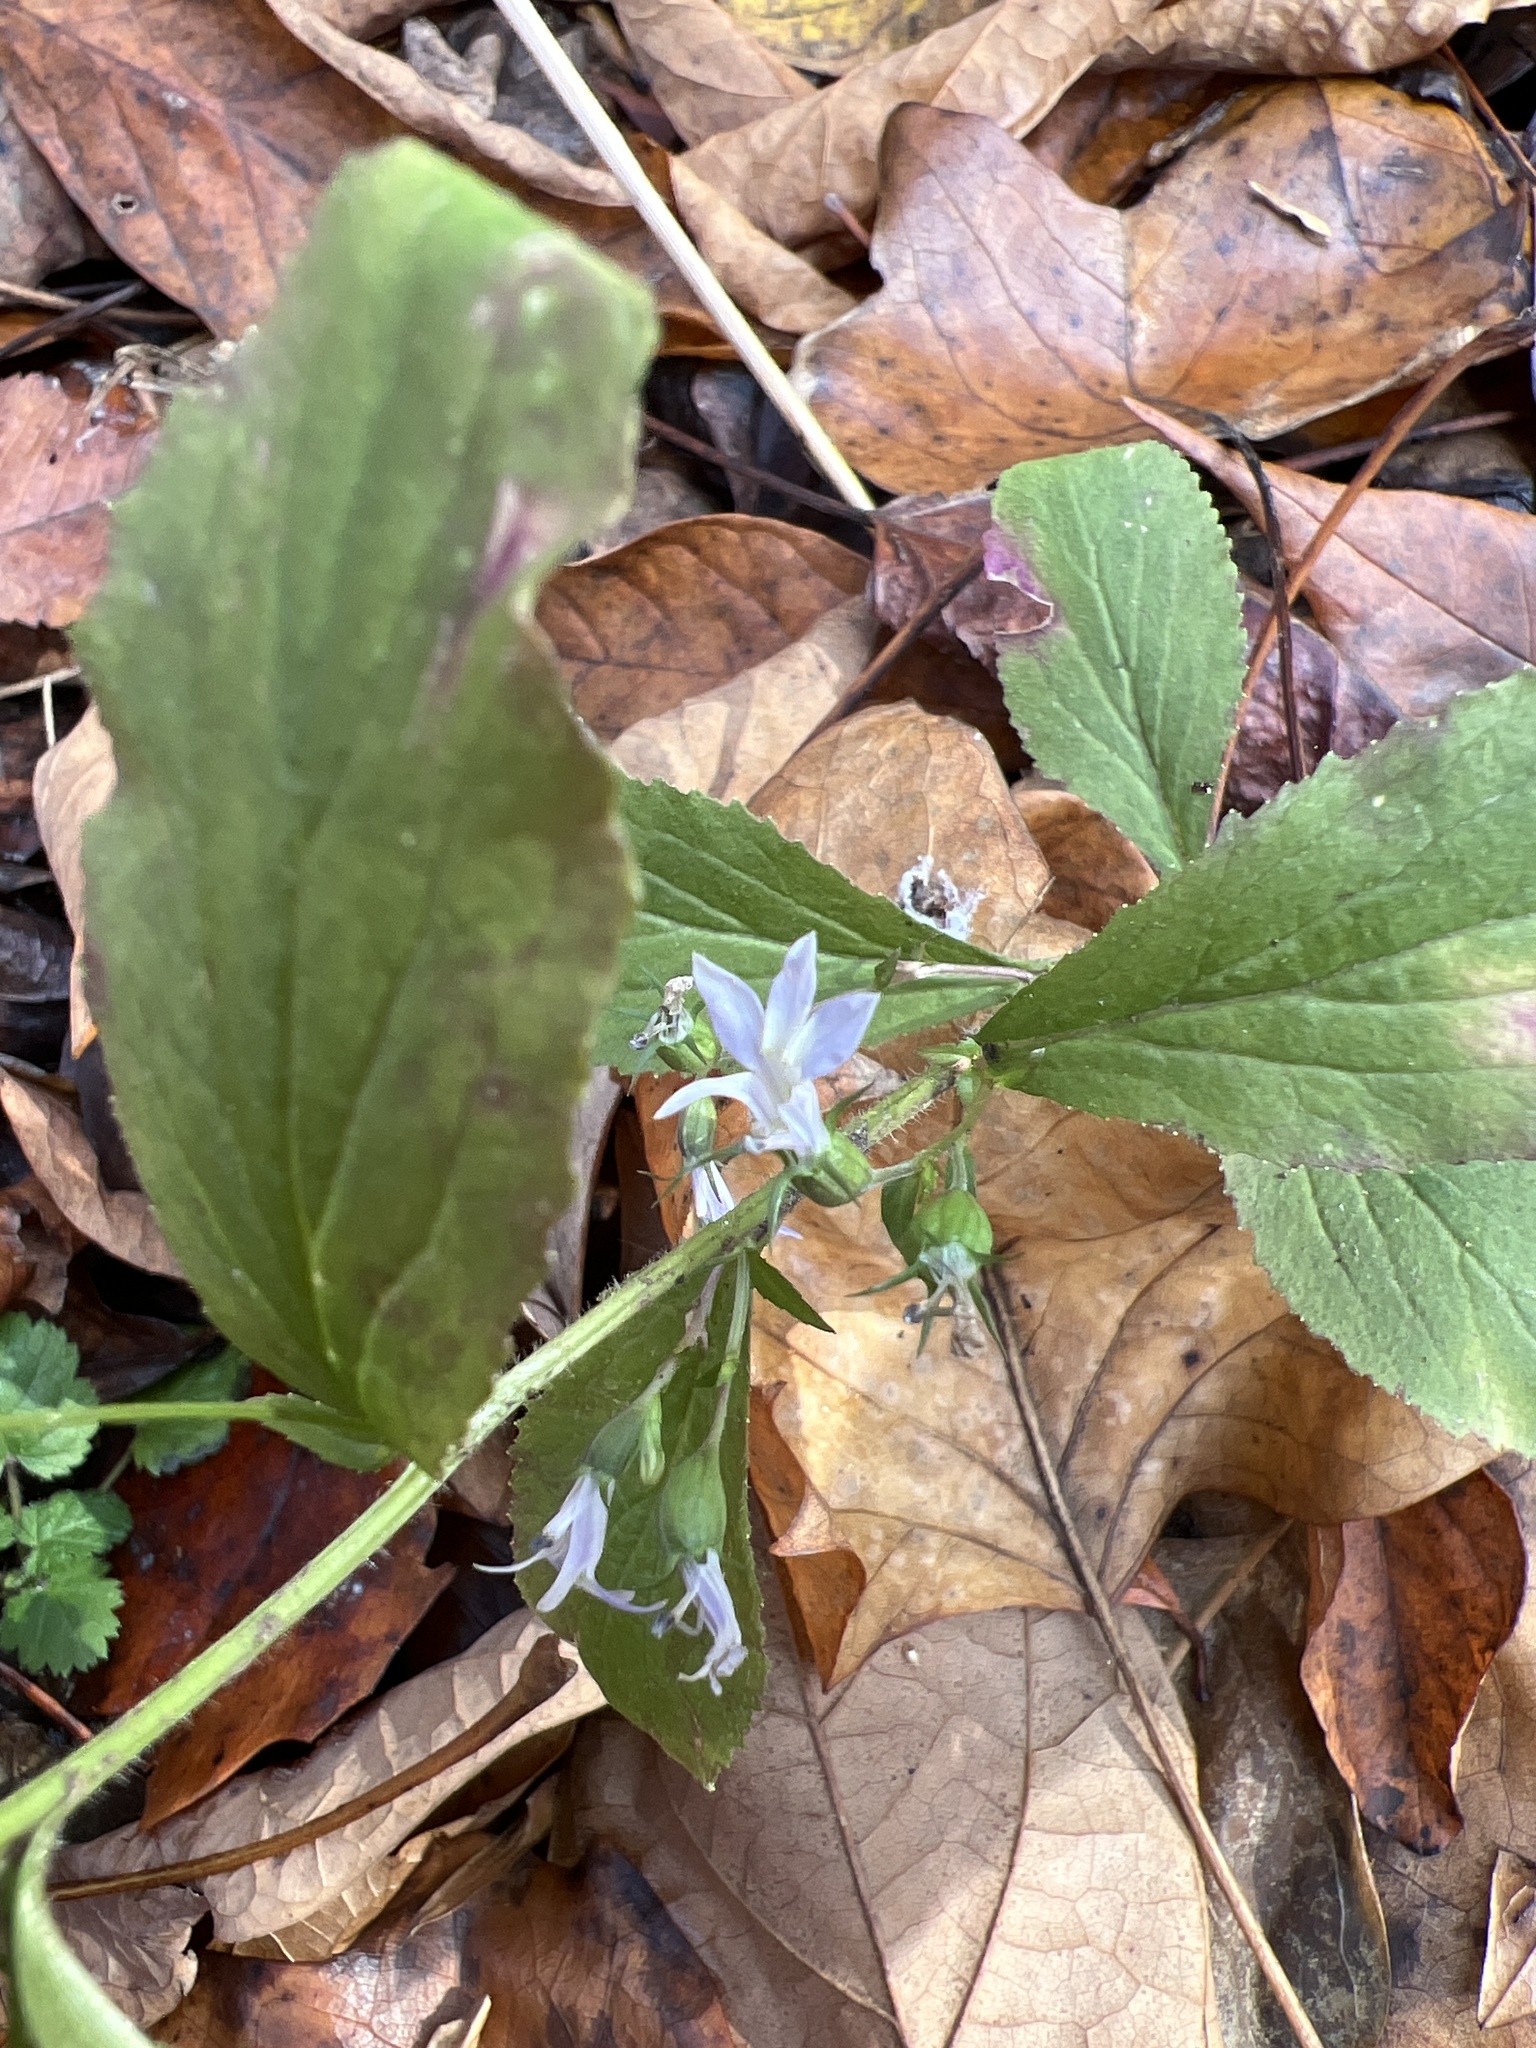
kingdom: Plantae
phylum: Tracheophyta
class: Magnoliopsida
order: Asterales
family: Campanulaceae
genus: Lobelia
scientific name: Lobelia inflata
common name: Indian tobacco
